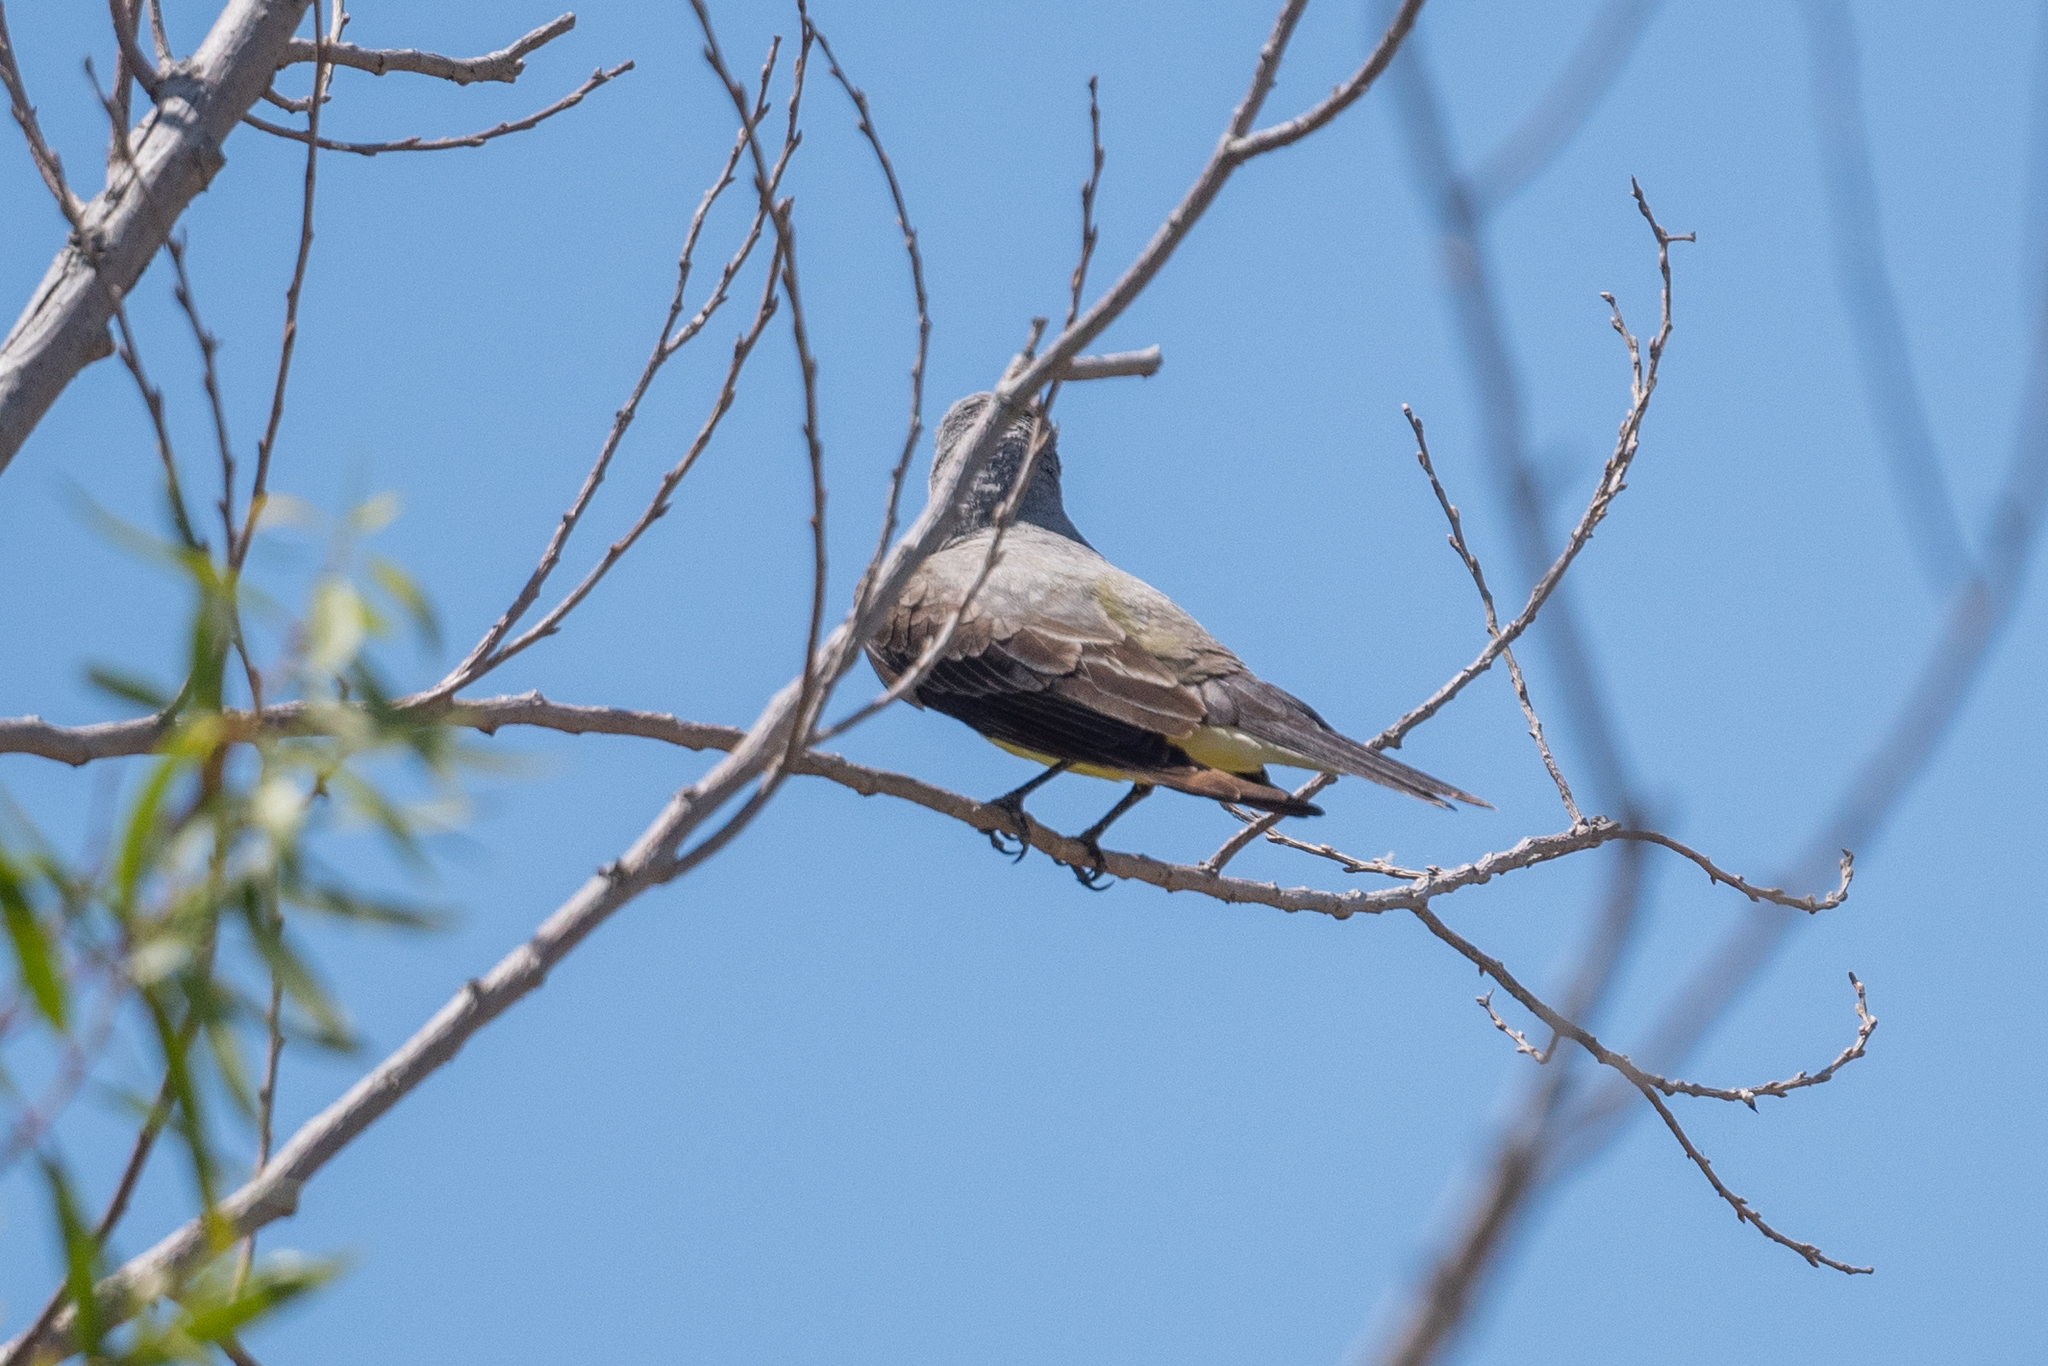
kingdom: Animalia
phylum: Chordata
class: Aves
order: Passeriformes
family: Tyrannidae
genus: Tyrannus
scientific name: Tyrannus verticalis
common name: Western kingbird
